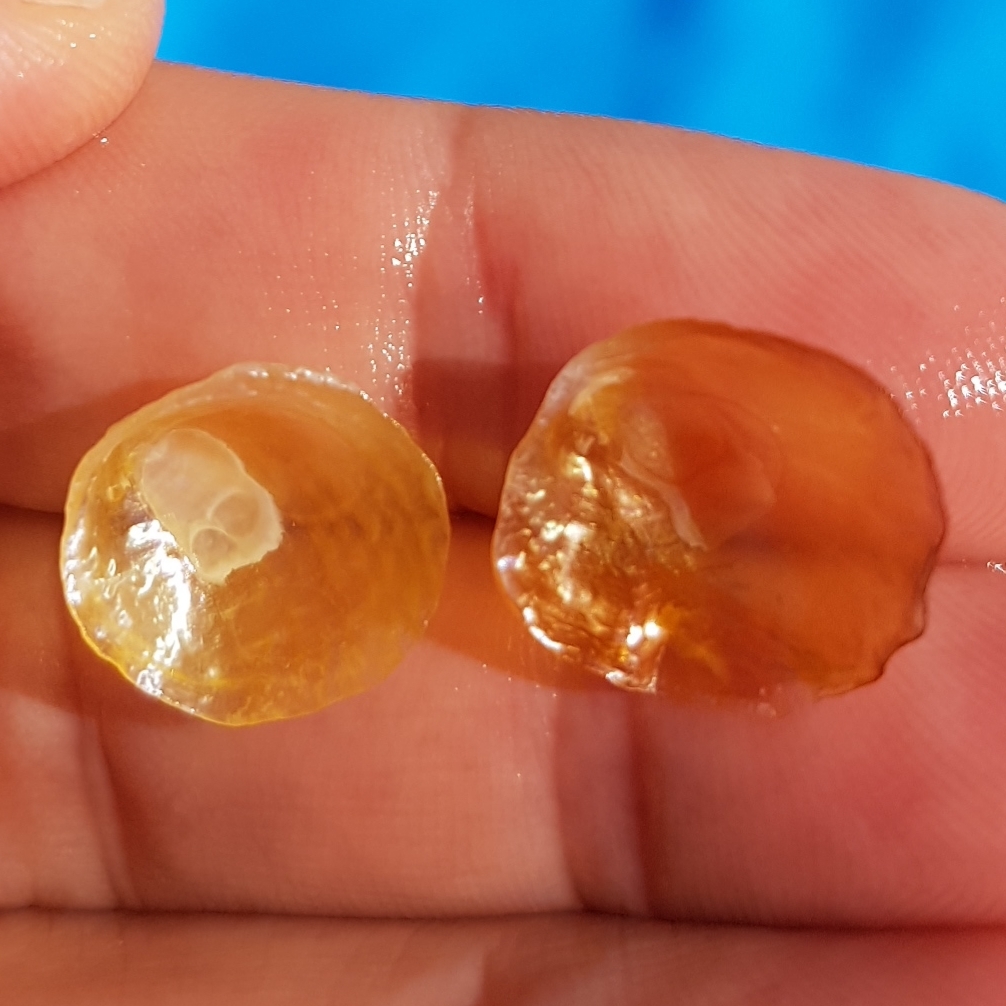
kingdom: Animalia
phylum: Mollusca
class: Bivalvia
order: Pectinida
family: Anomiidae
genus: Anomia
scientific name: Anomia ephippium
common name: Saddle oyster
